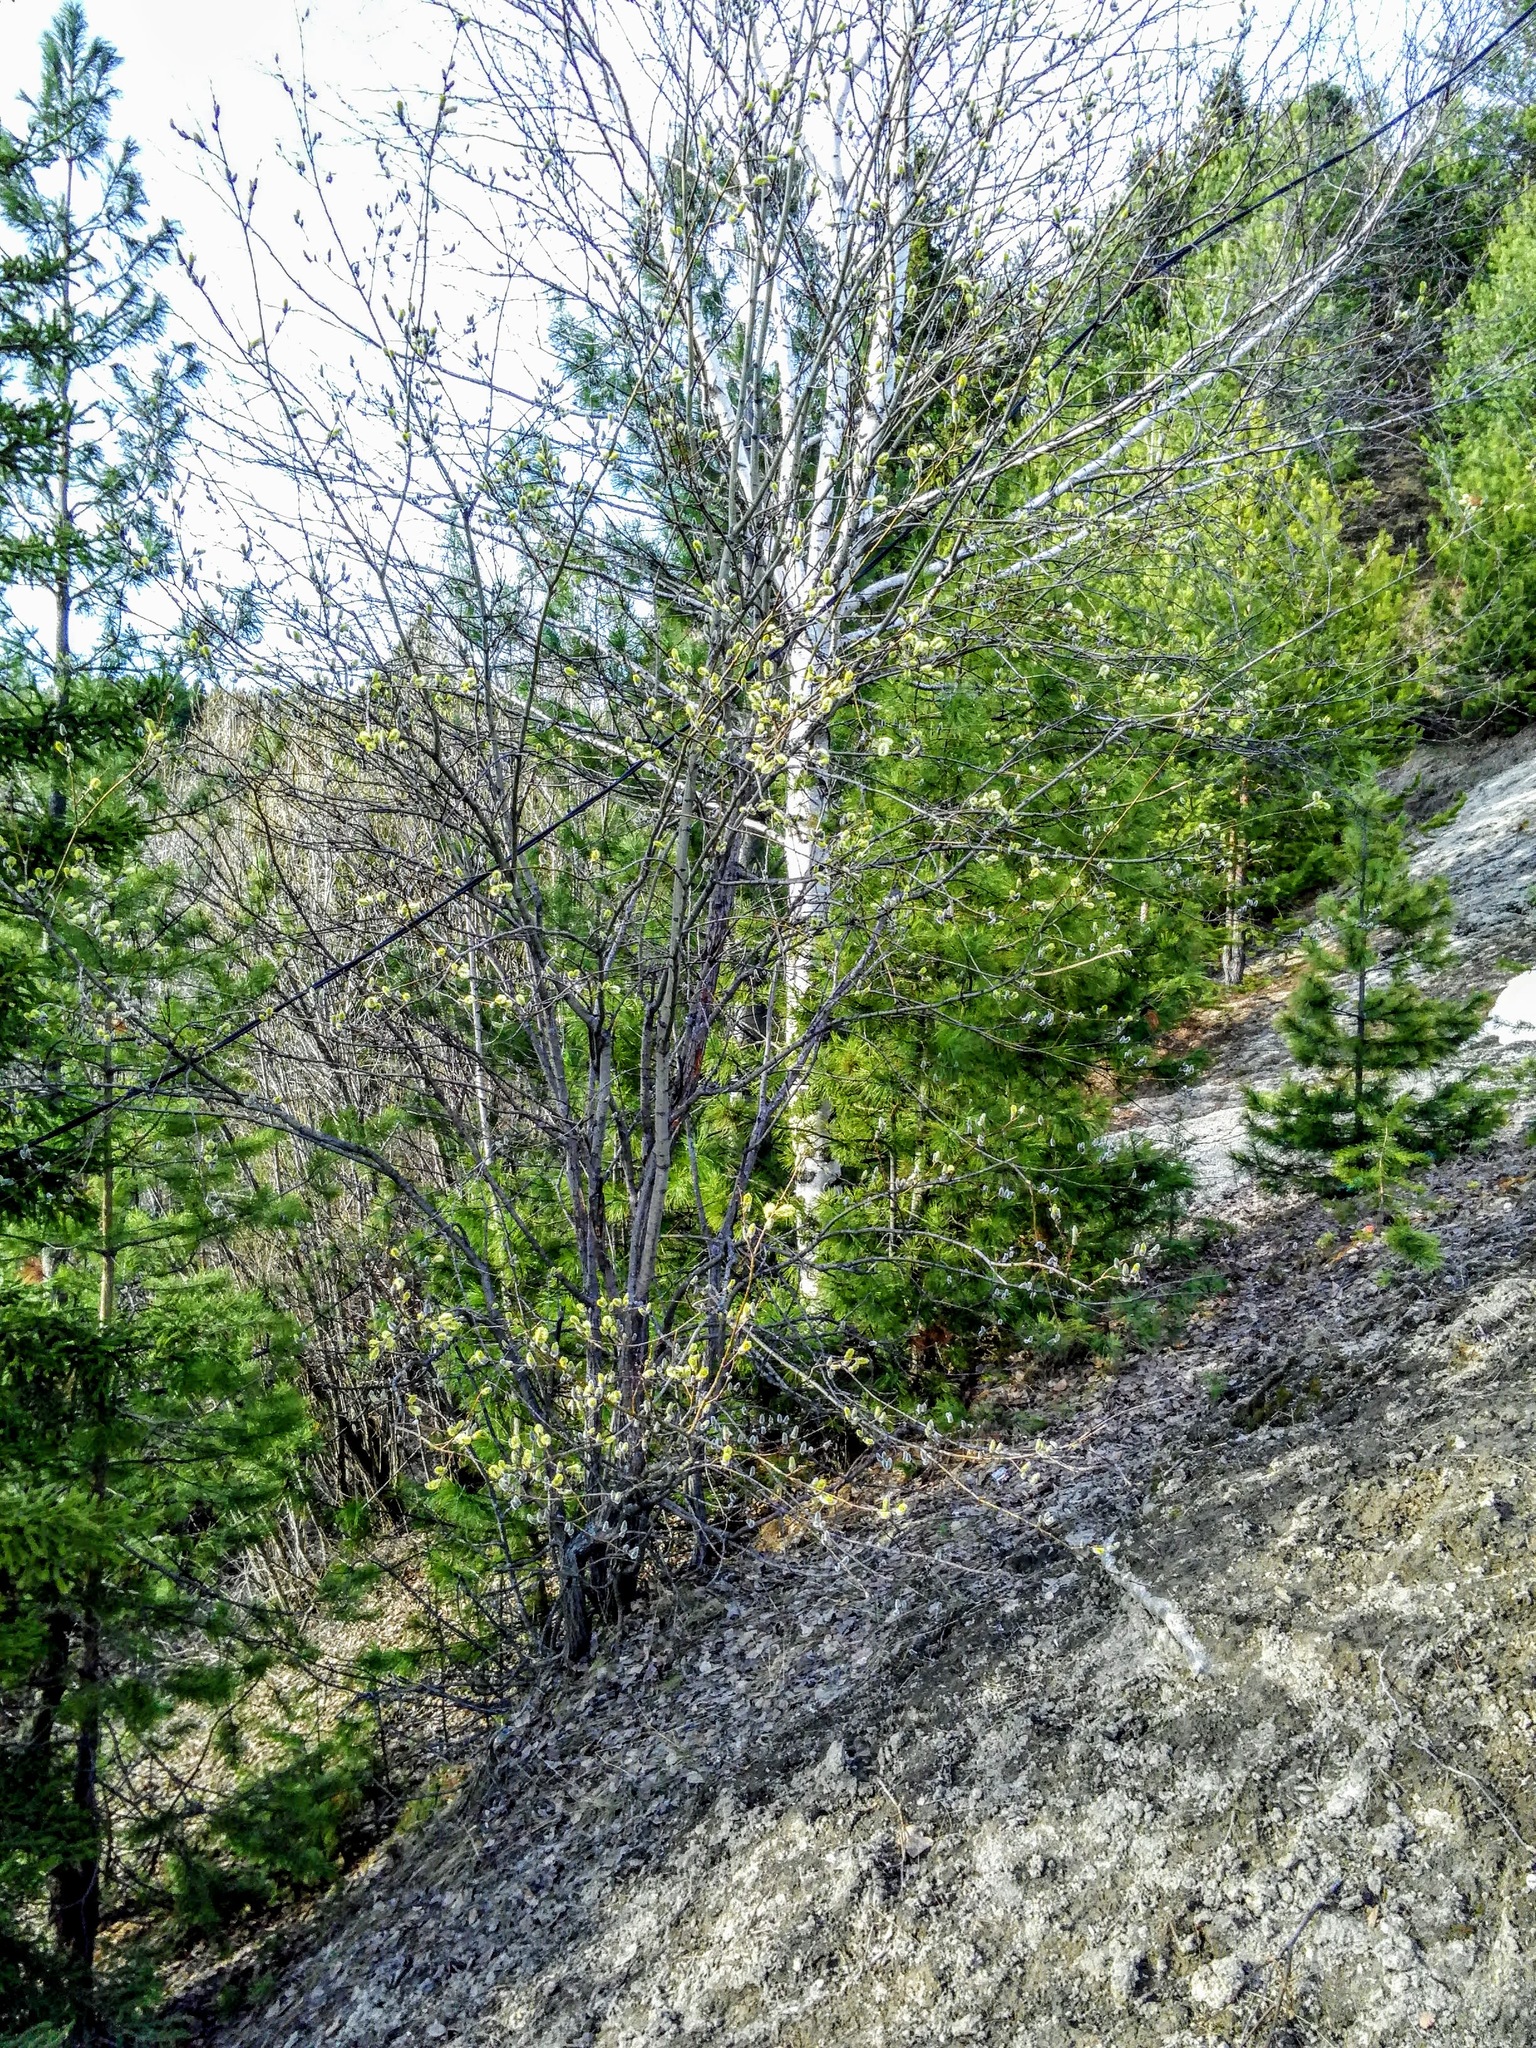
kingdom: Plantae
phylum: Tracheophyta
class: Magnoliopsida
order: Malpighiales
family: Salicaceae
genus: Salix
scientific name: Salix caprea
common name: Goat willow
